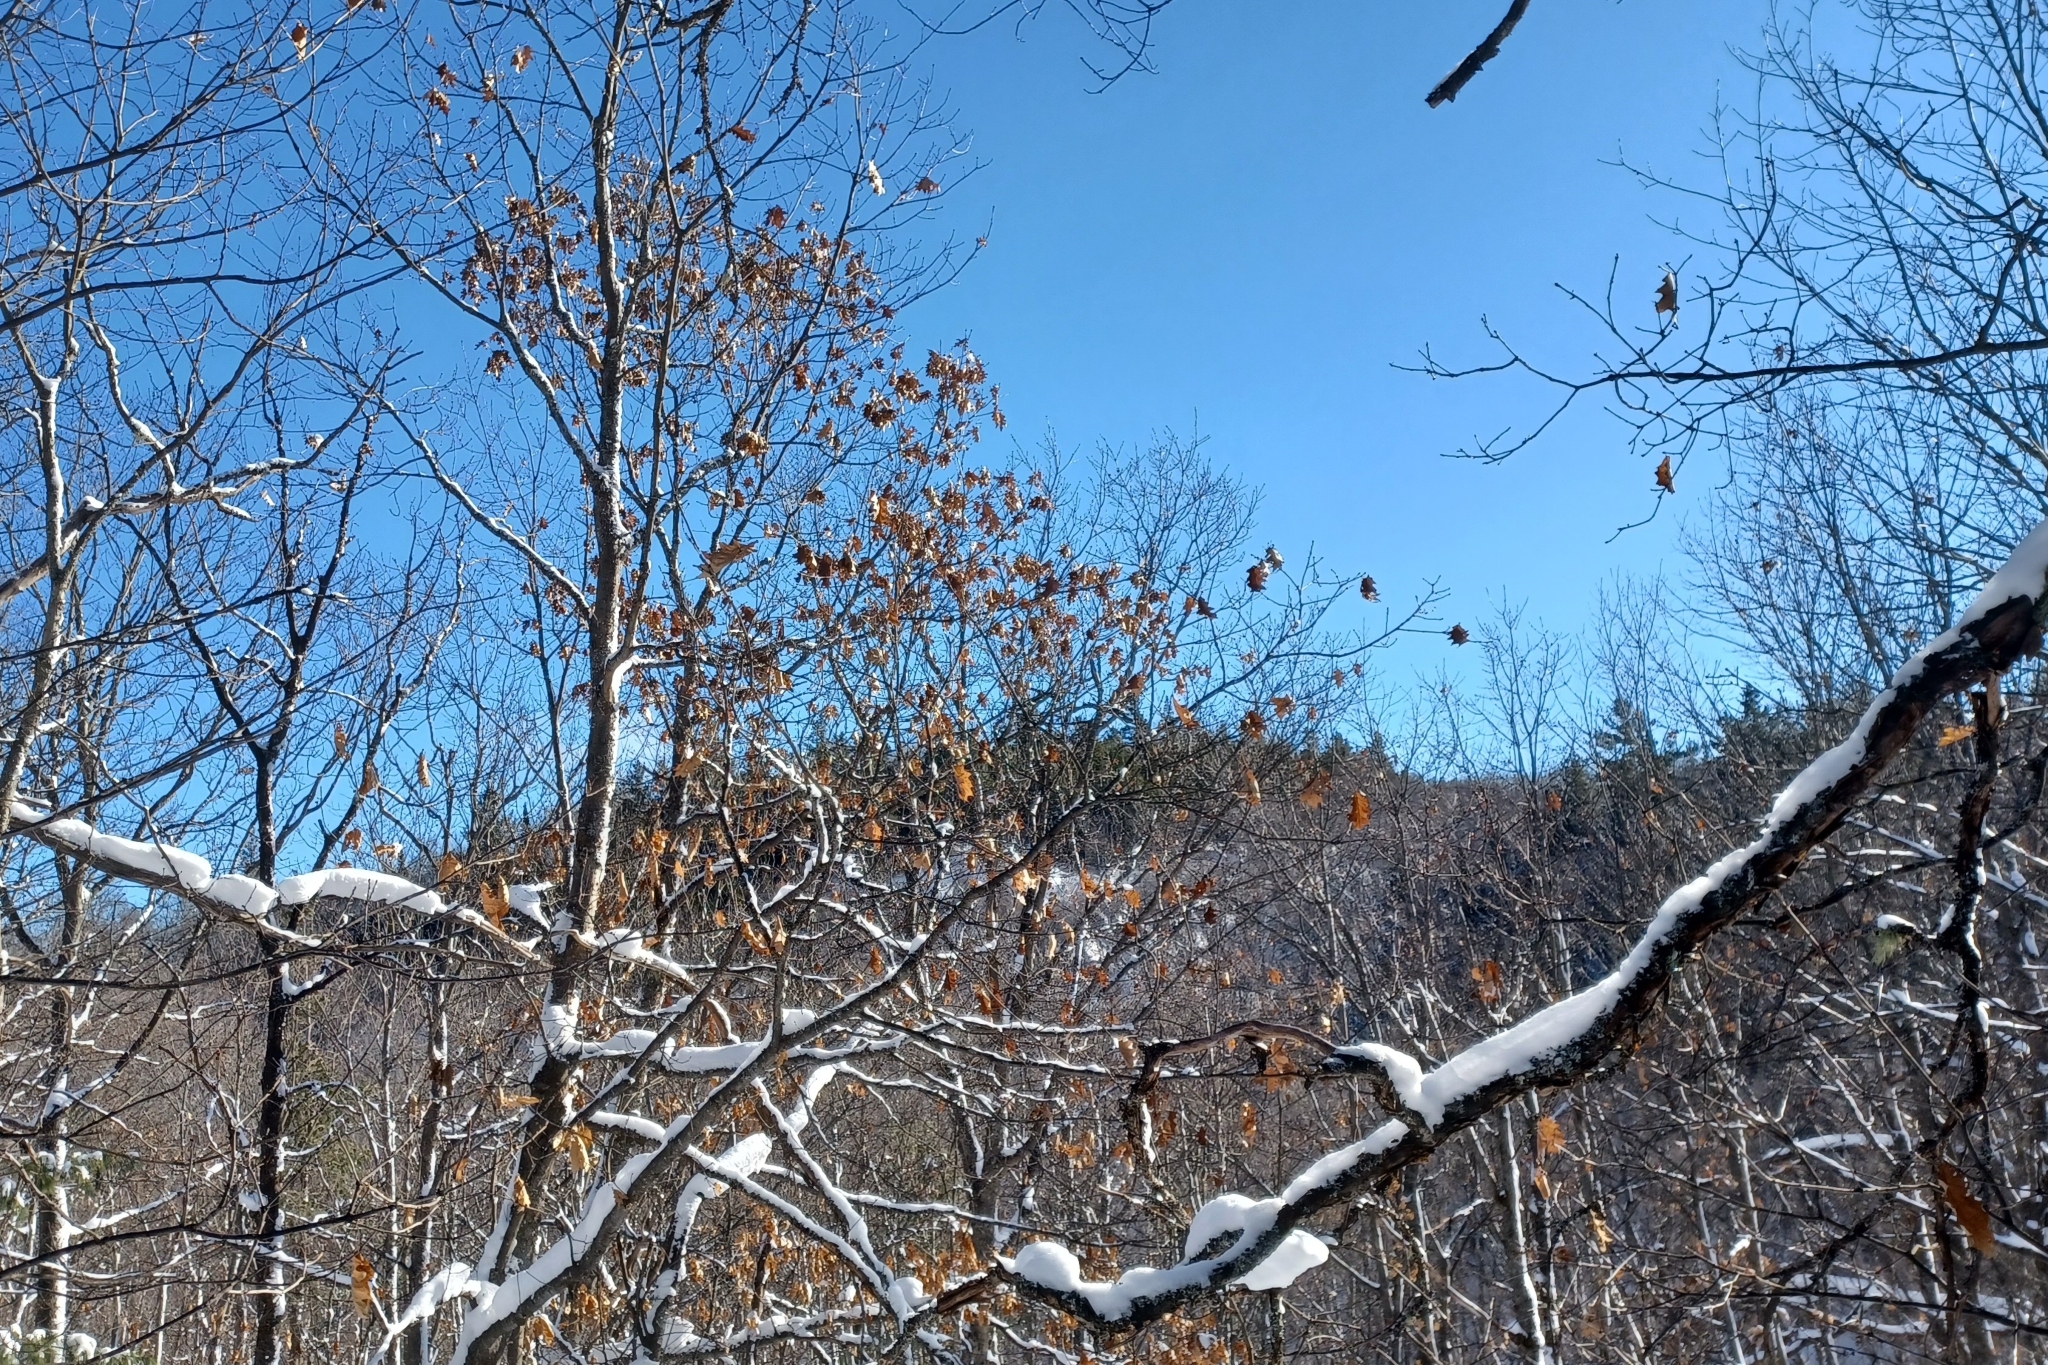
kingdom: Plantae
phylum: Tracheophyta
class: Magnoliopsida
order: Fagales
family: Fagaceae
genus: Quercus
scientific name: Quercus rubra
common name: Red oak
